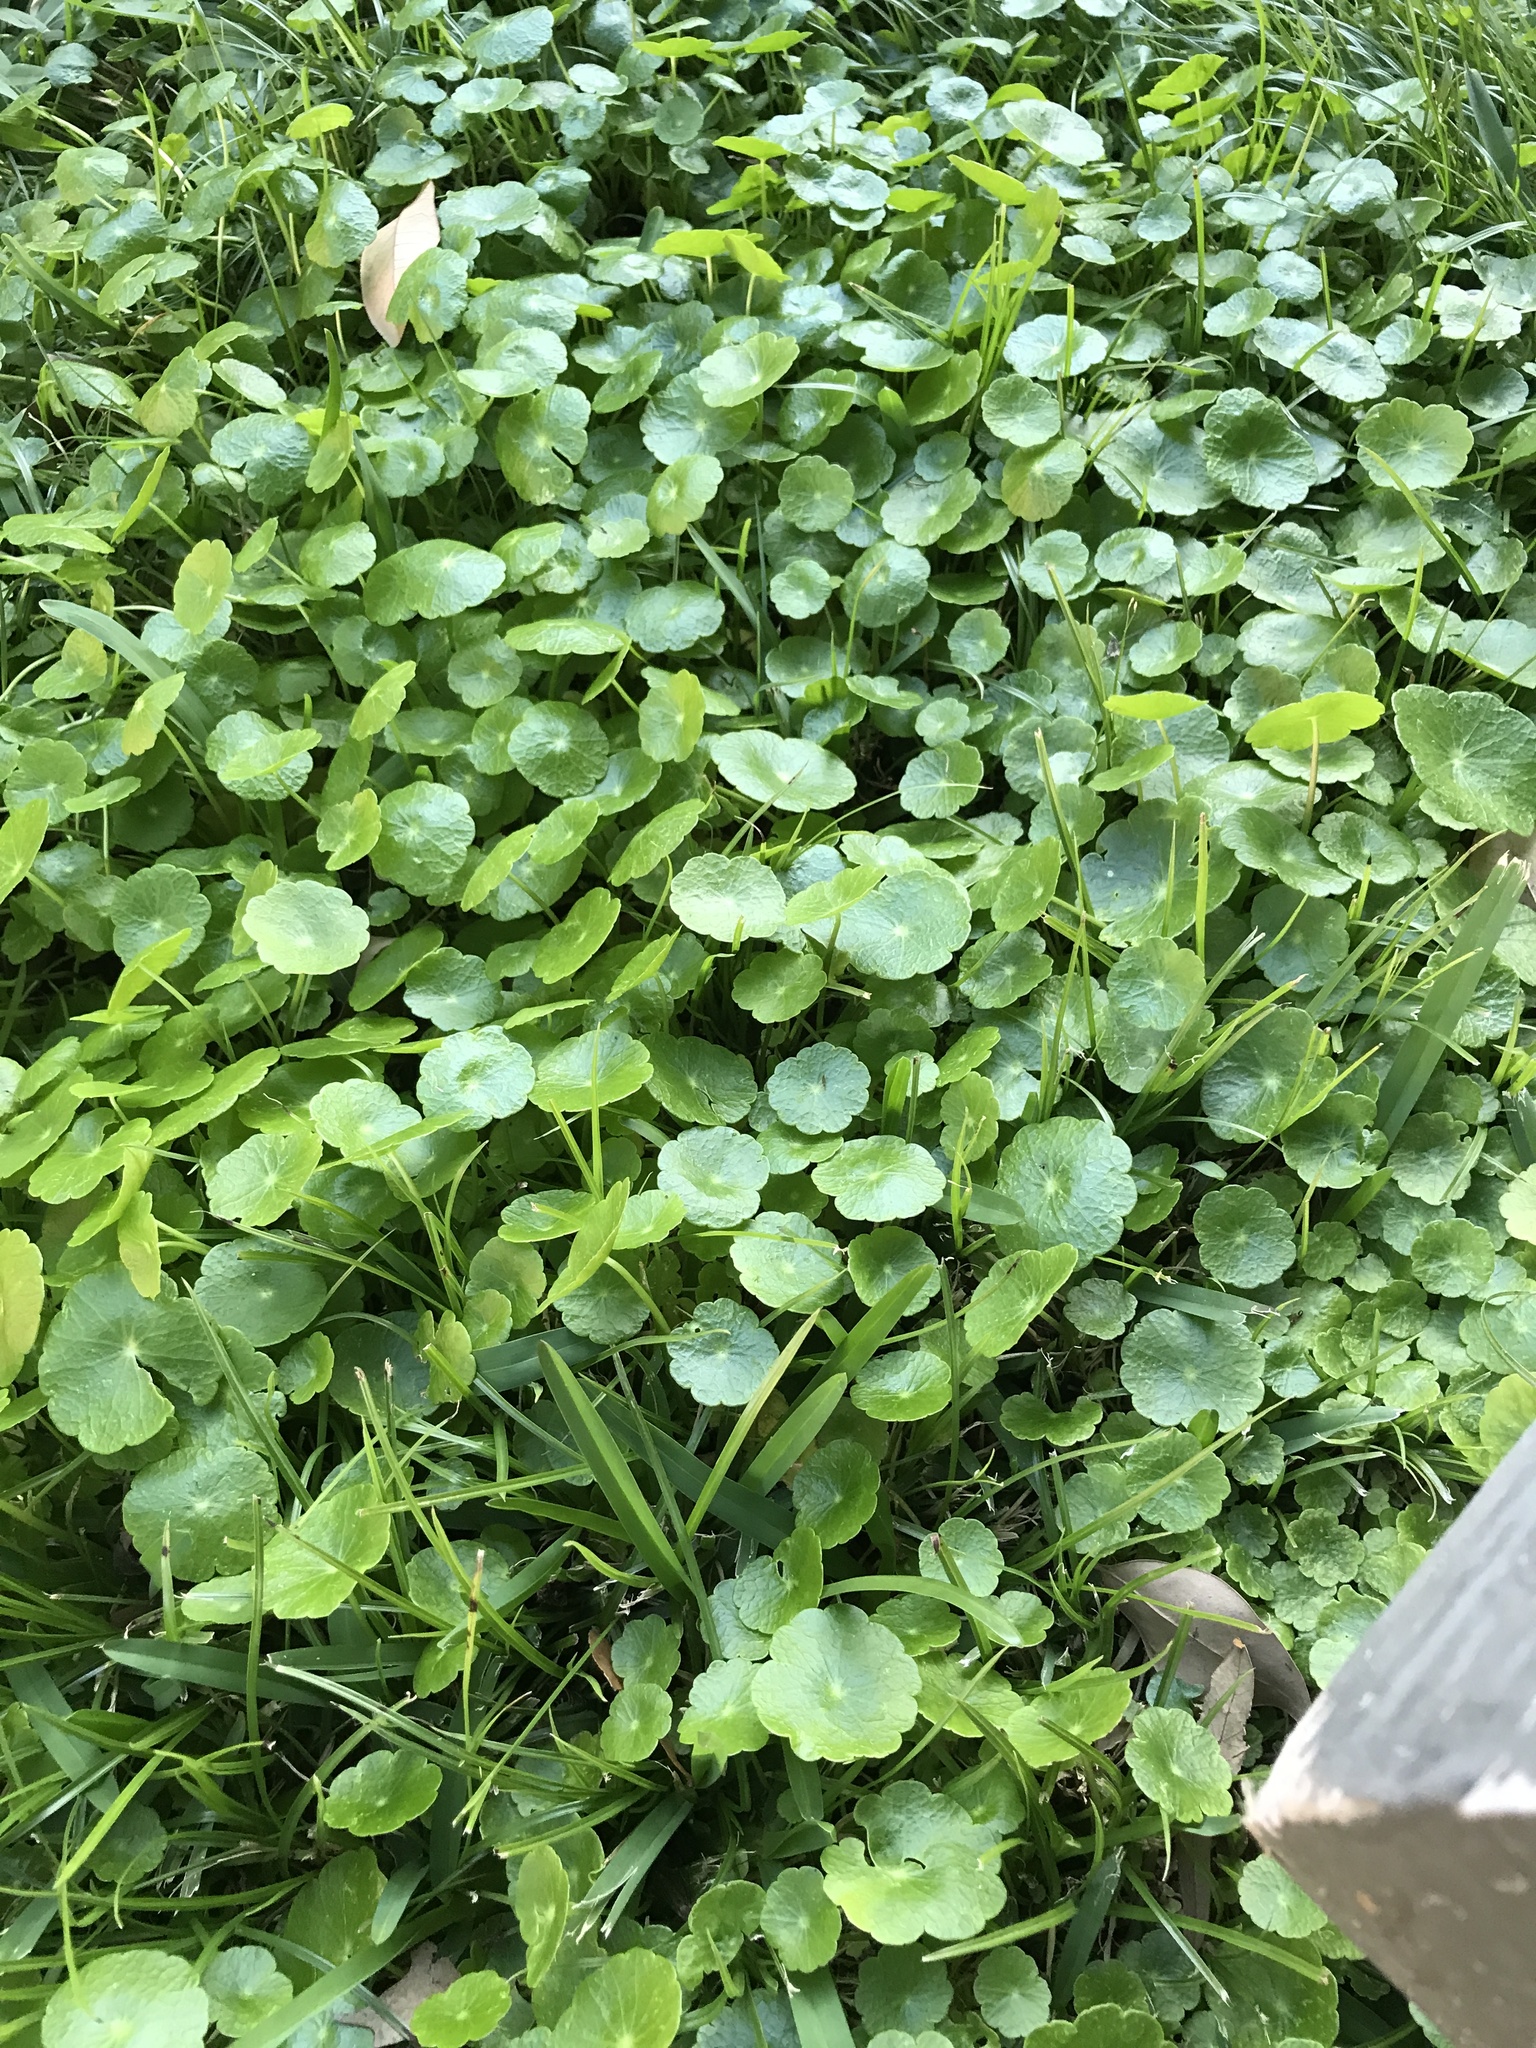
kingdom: Plantae
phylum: Tracheophyta
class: Magnoliopsida
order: Apiales
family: Araliaceae
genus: Hydrocotyle
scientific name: Hydrocotyle
